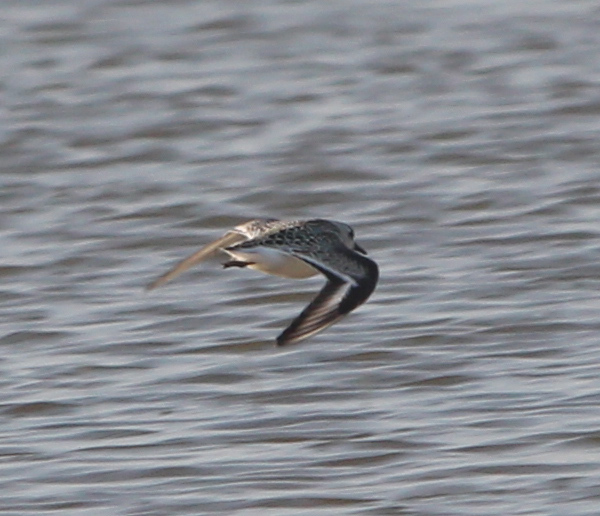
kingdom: Animalia
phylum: Chordata
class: Aves
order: Charadriiformes
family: Scolopacidae
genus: Calidris
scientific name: Calidris alba
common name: Sanderling
